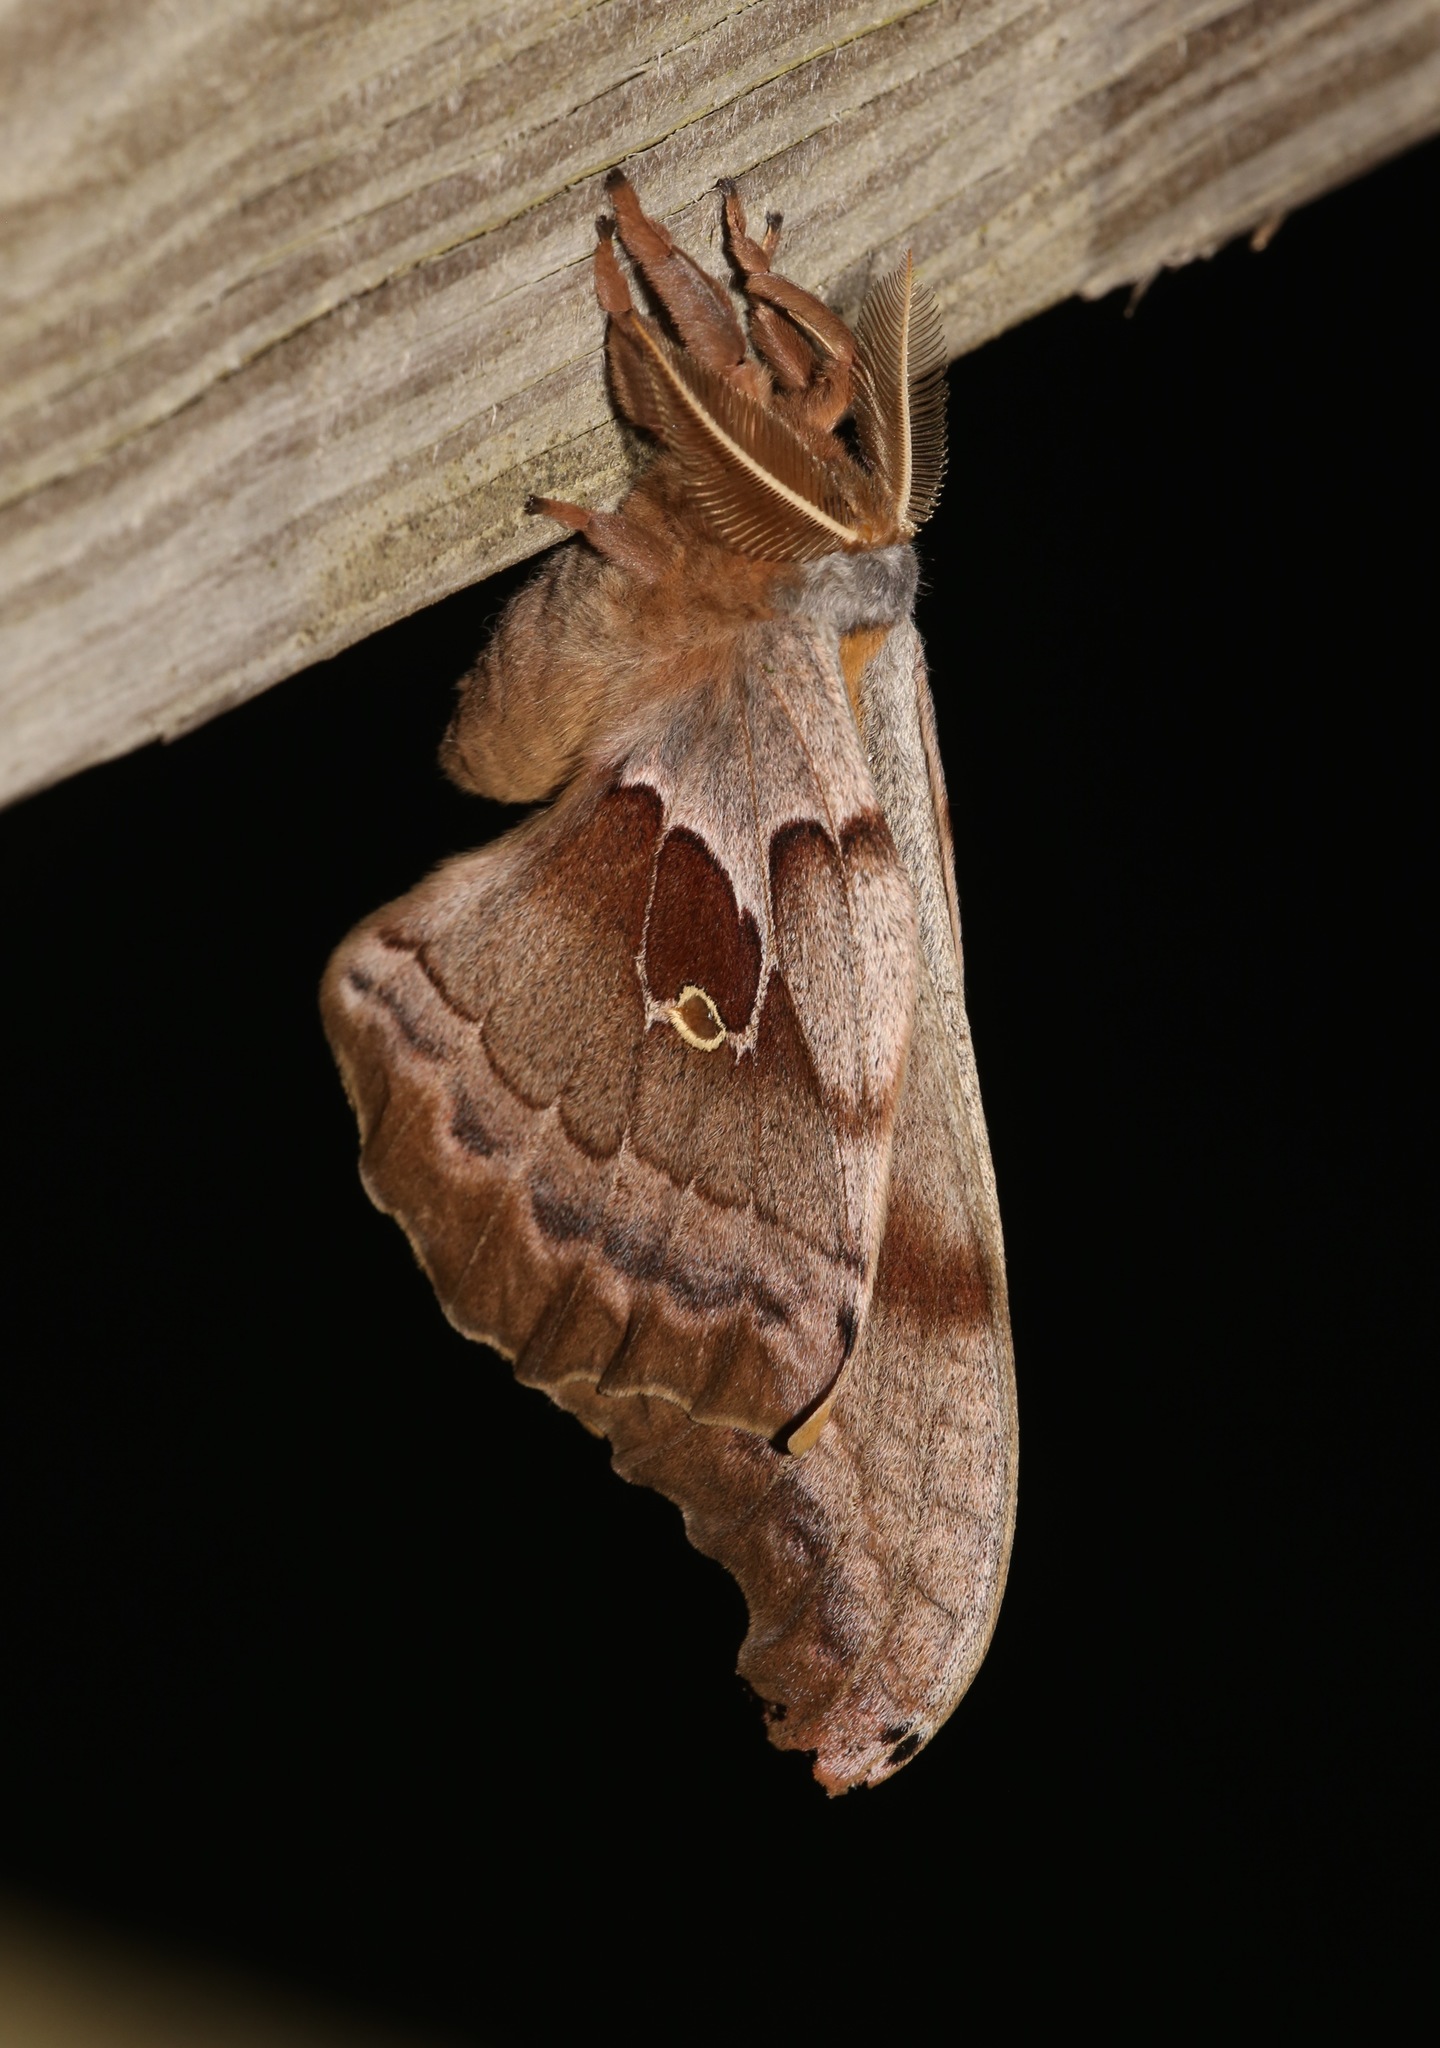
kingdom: Animalia
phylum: Arthropoda
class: Insecta
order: Lepidoptera
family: Saturniidae
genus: Antheraea
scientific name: Antheraea polyphemus
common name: Polyphemus moth
